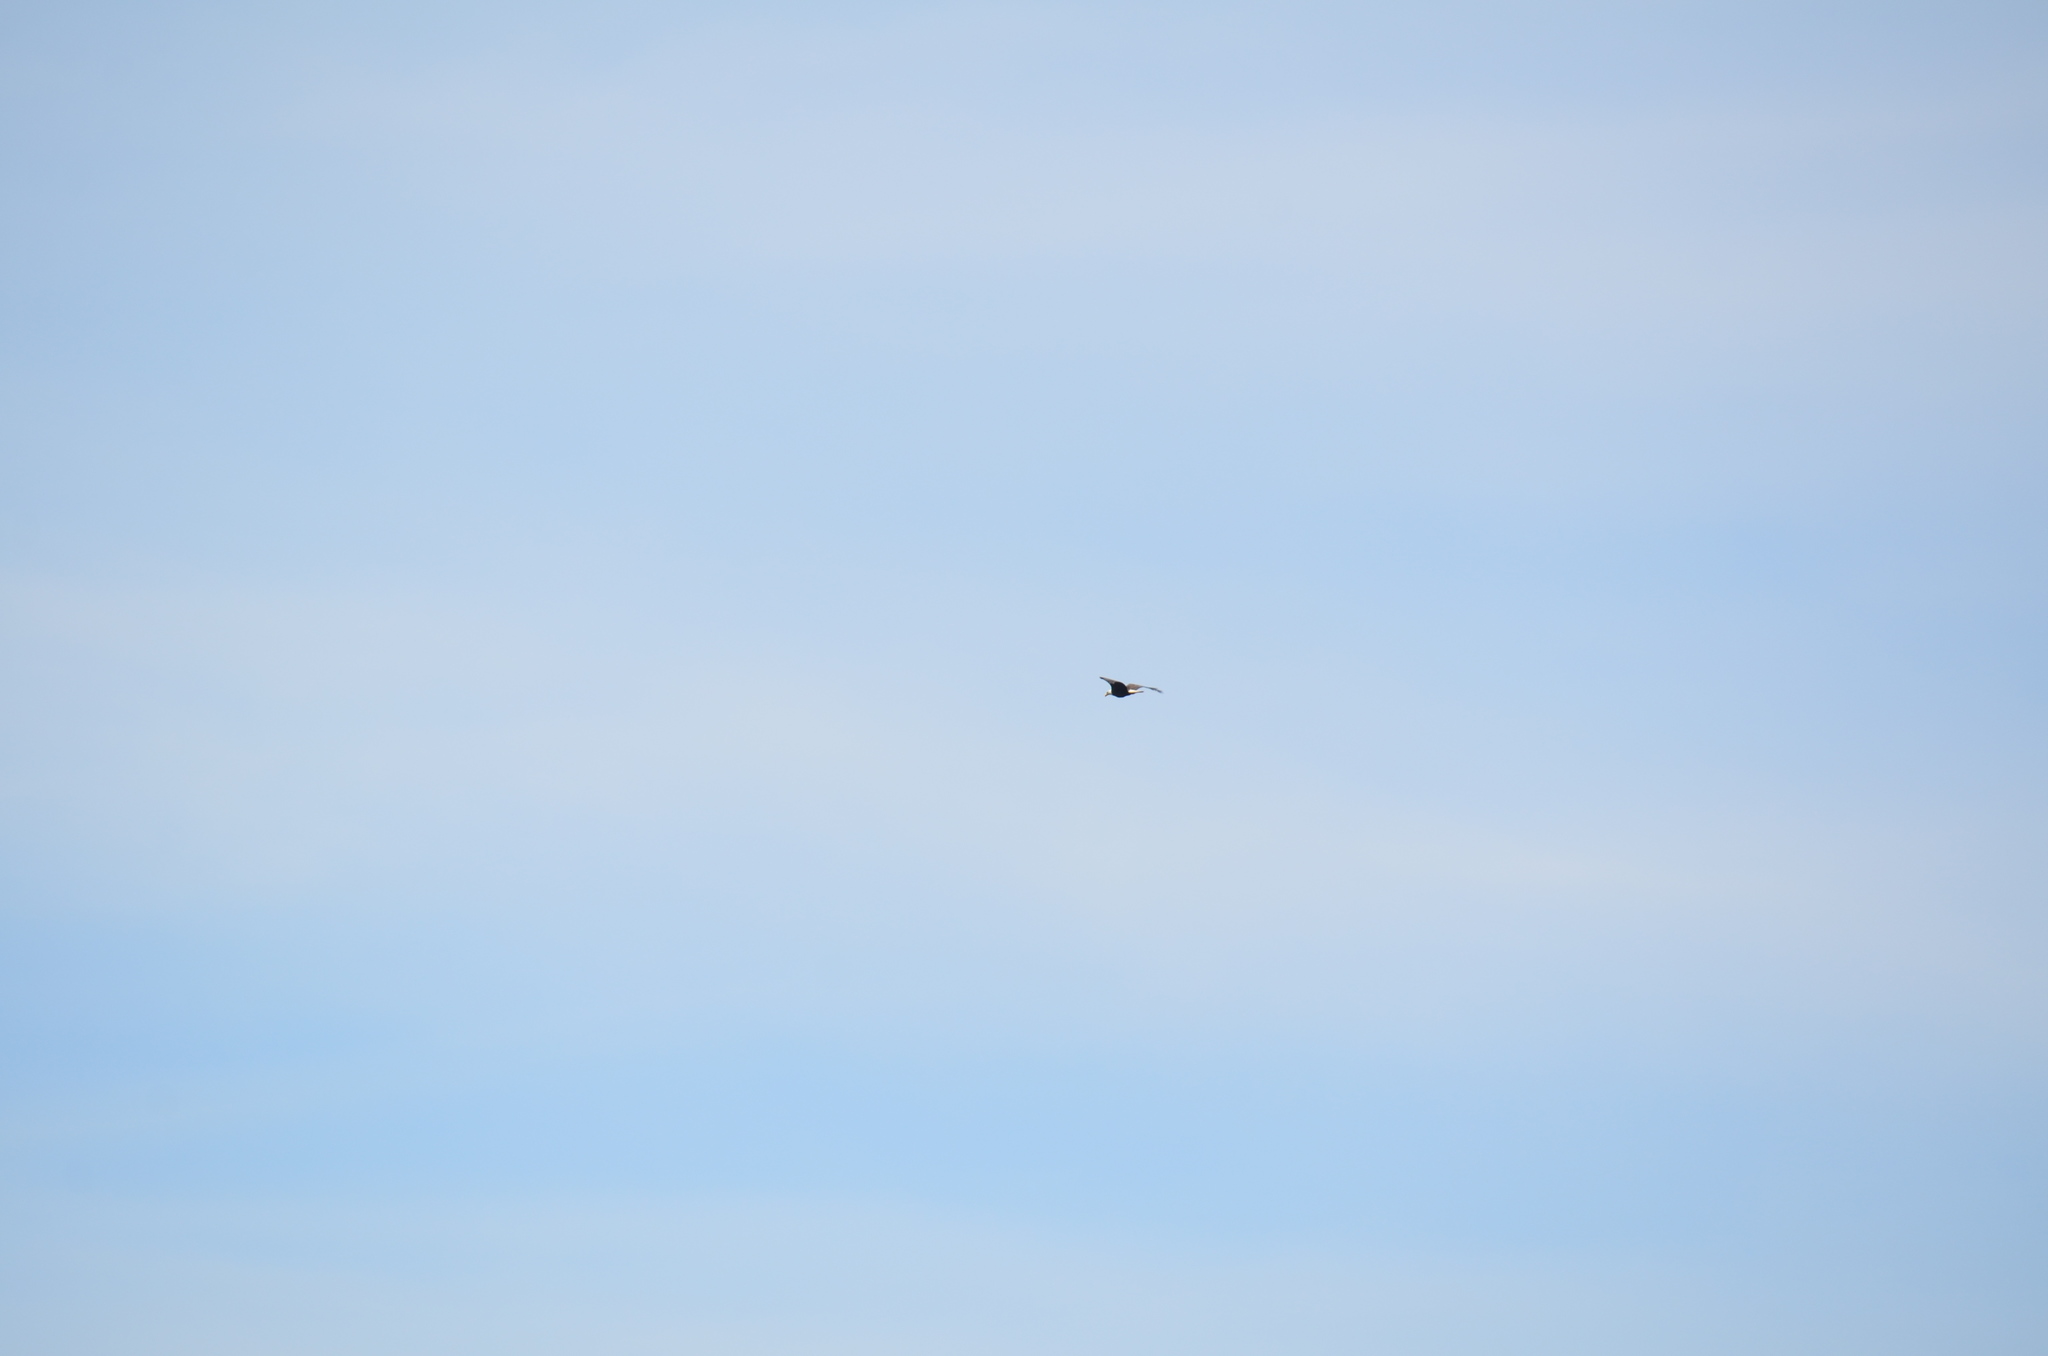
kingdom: Animalia
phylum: Chordata
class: Aves
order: Accipitriformes
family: Accipitridae
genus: Haliaeetus
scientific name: Haliaeetus leucocephalus
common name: Bald eagle
